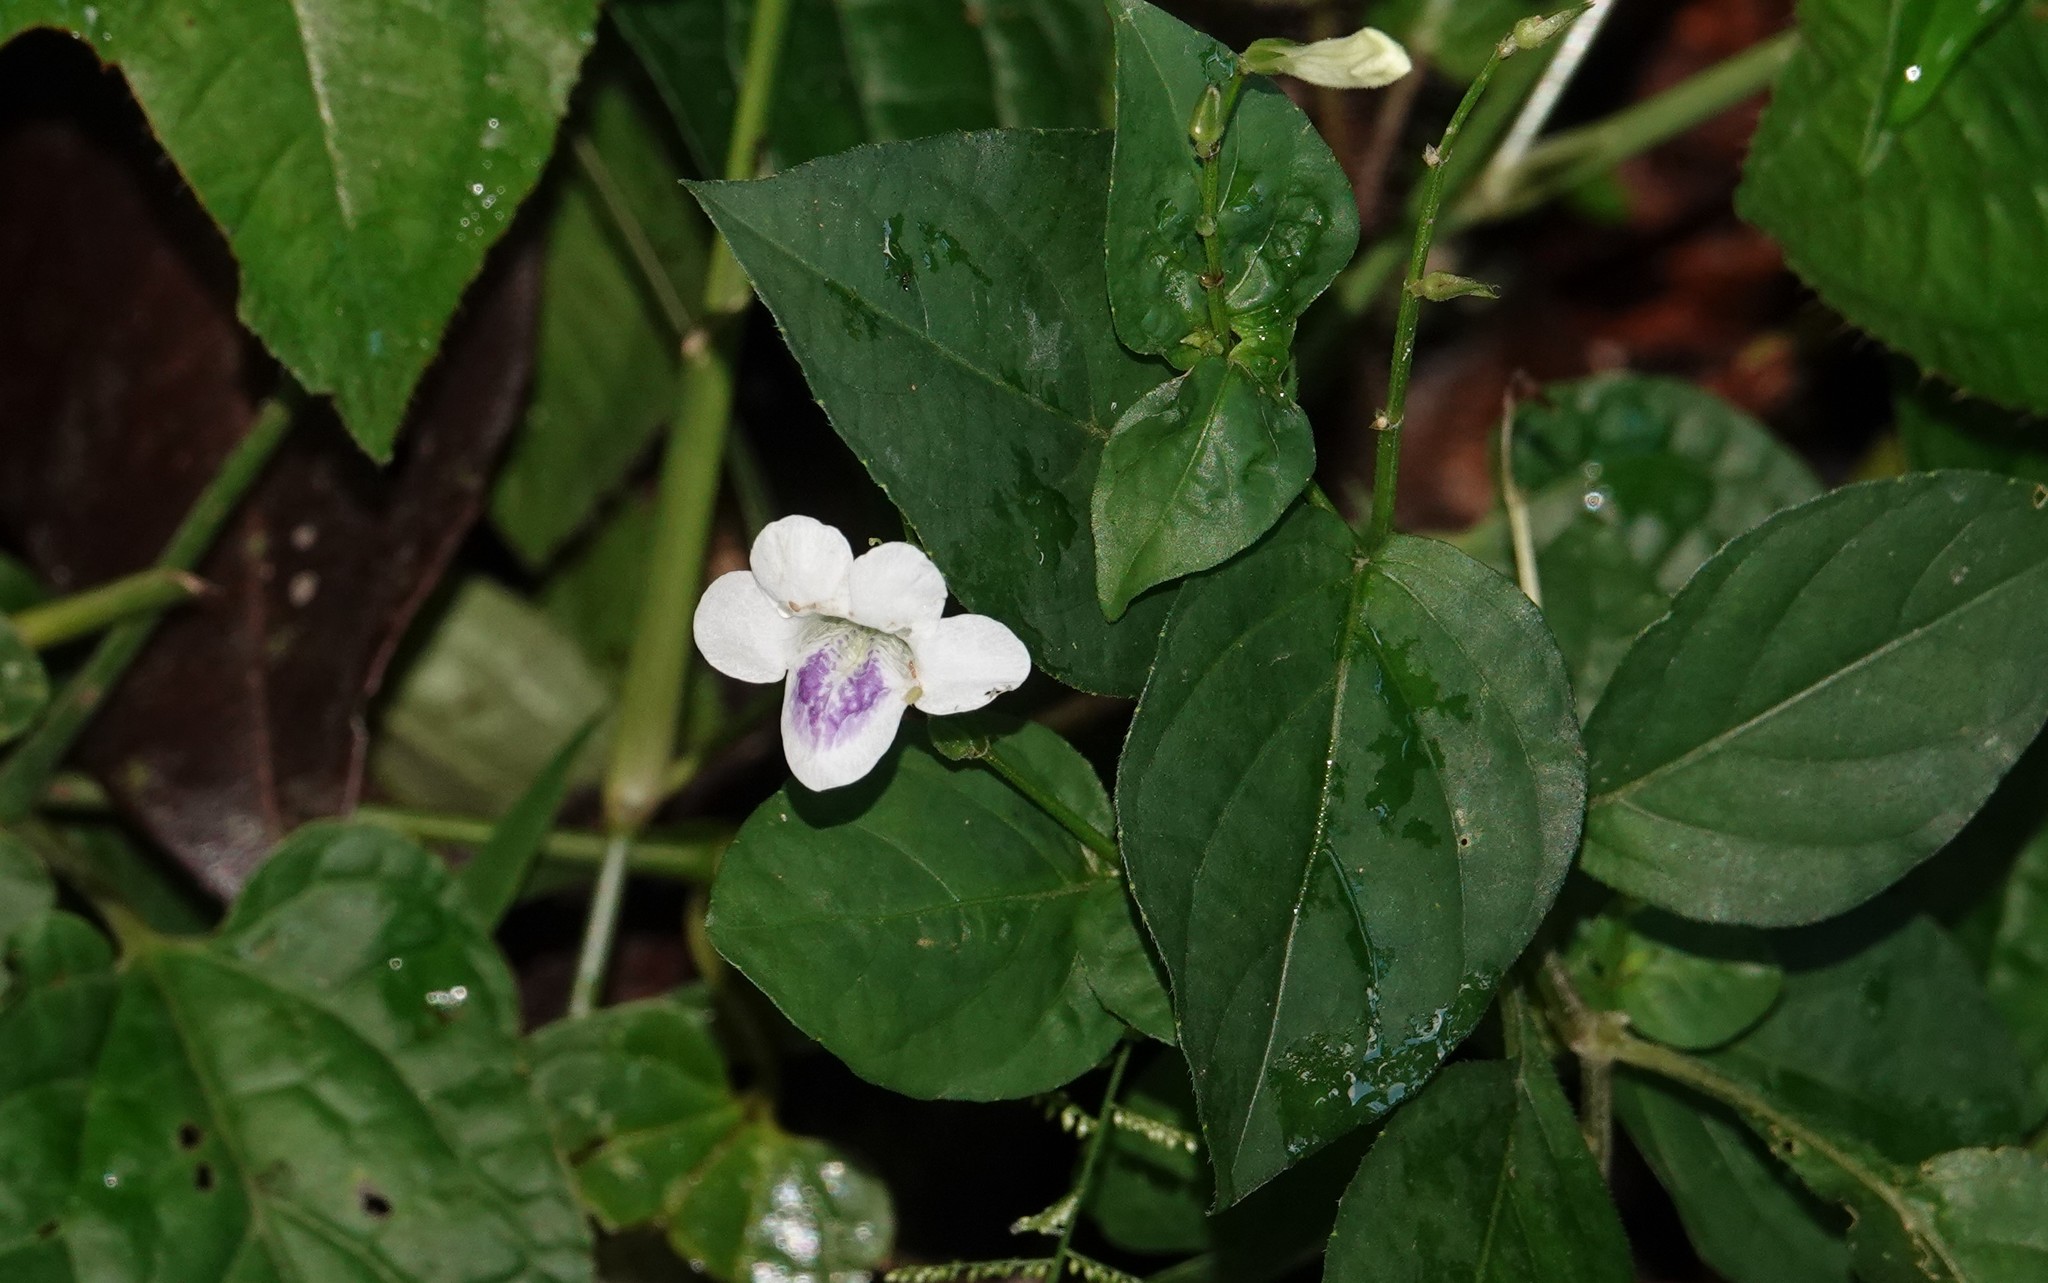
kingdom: Plantae
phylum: Tracheophyta
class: Magnoliopsida
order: Lamiales
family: Acanthaceae
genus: Asystasia
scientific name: Asystasia intrusa
